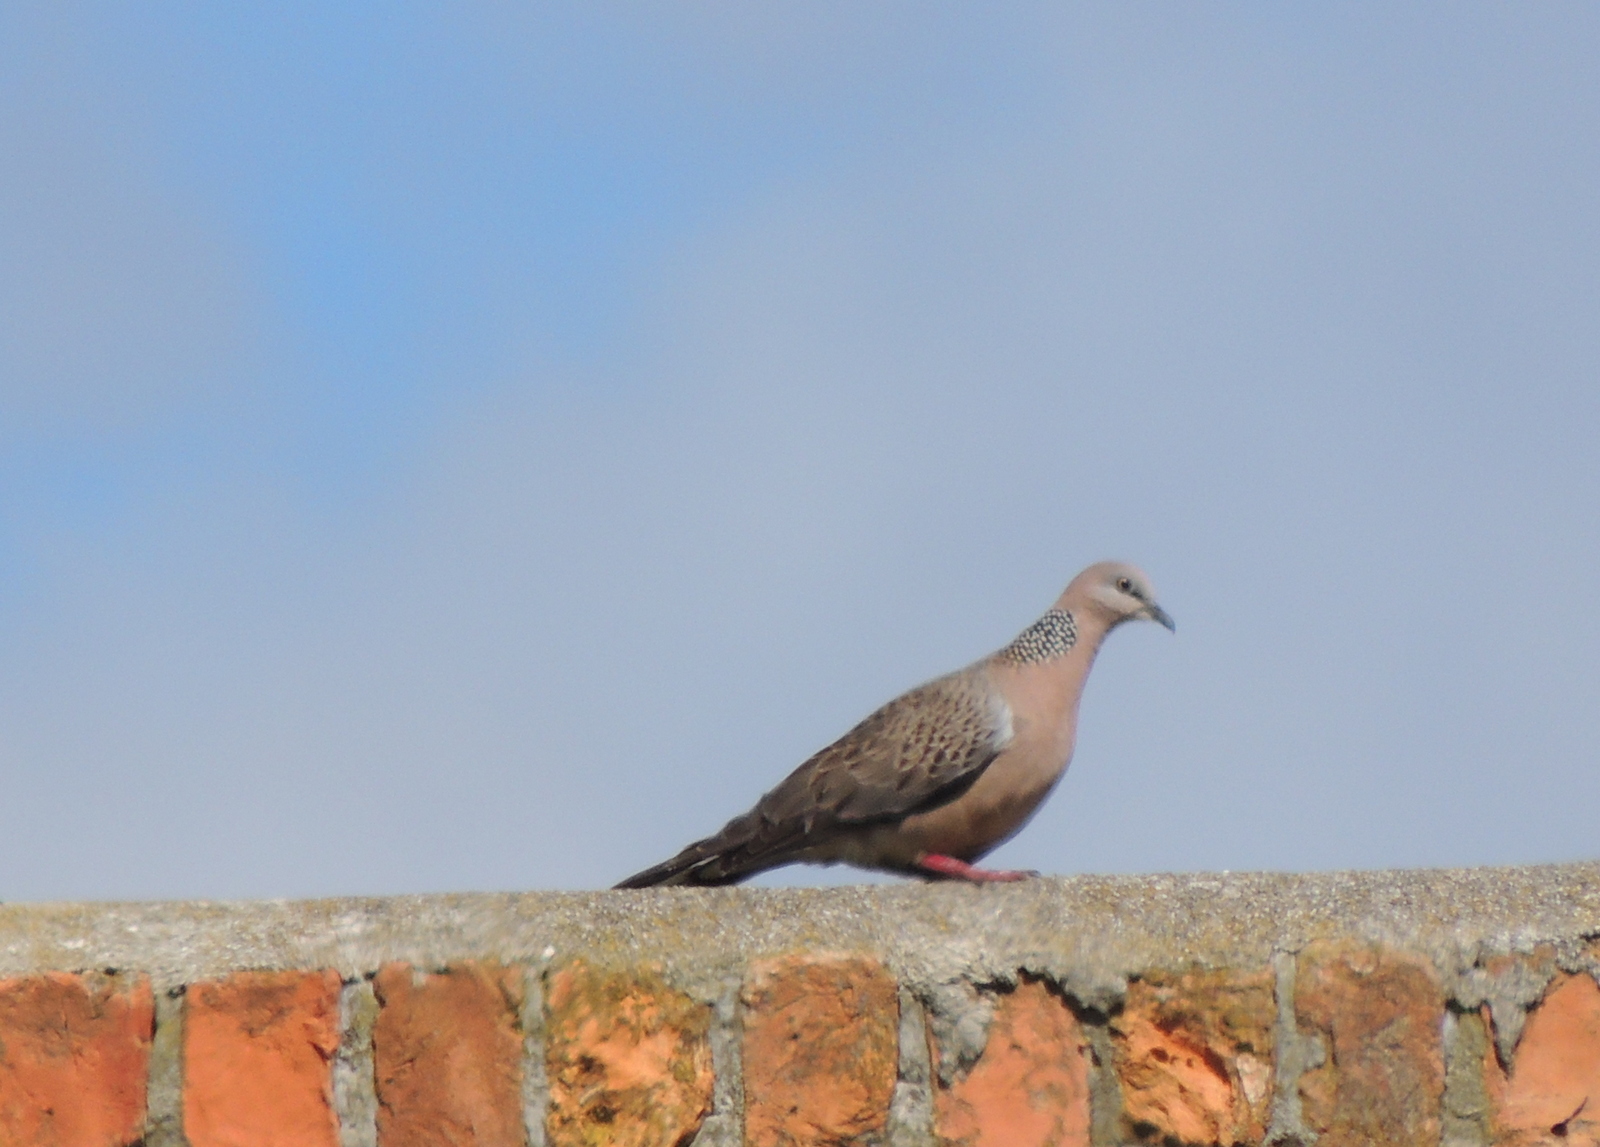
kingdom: Animalia
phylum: Chordata
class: Aves
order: Columbiformes
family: Columbidae
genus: Spilopelia
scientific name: Spilopelia chinensis
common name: Spotted dove
